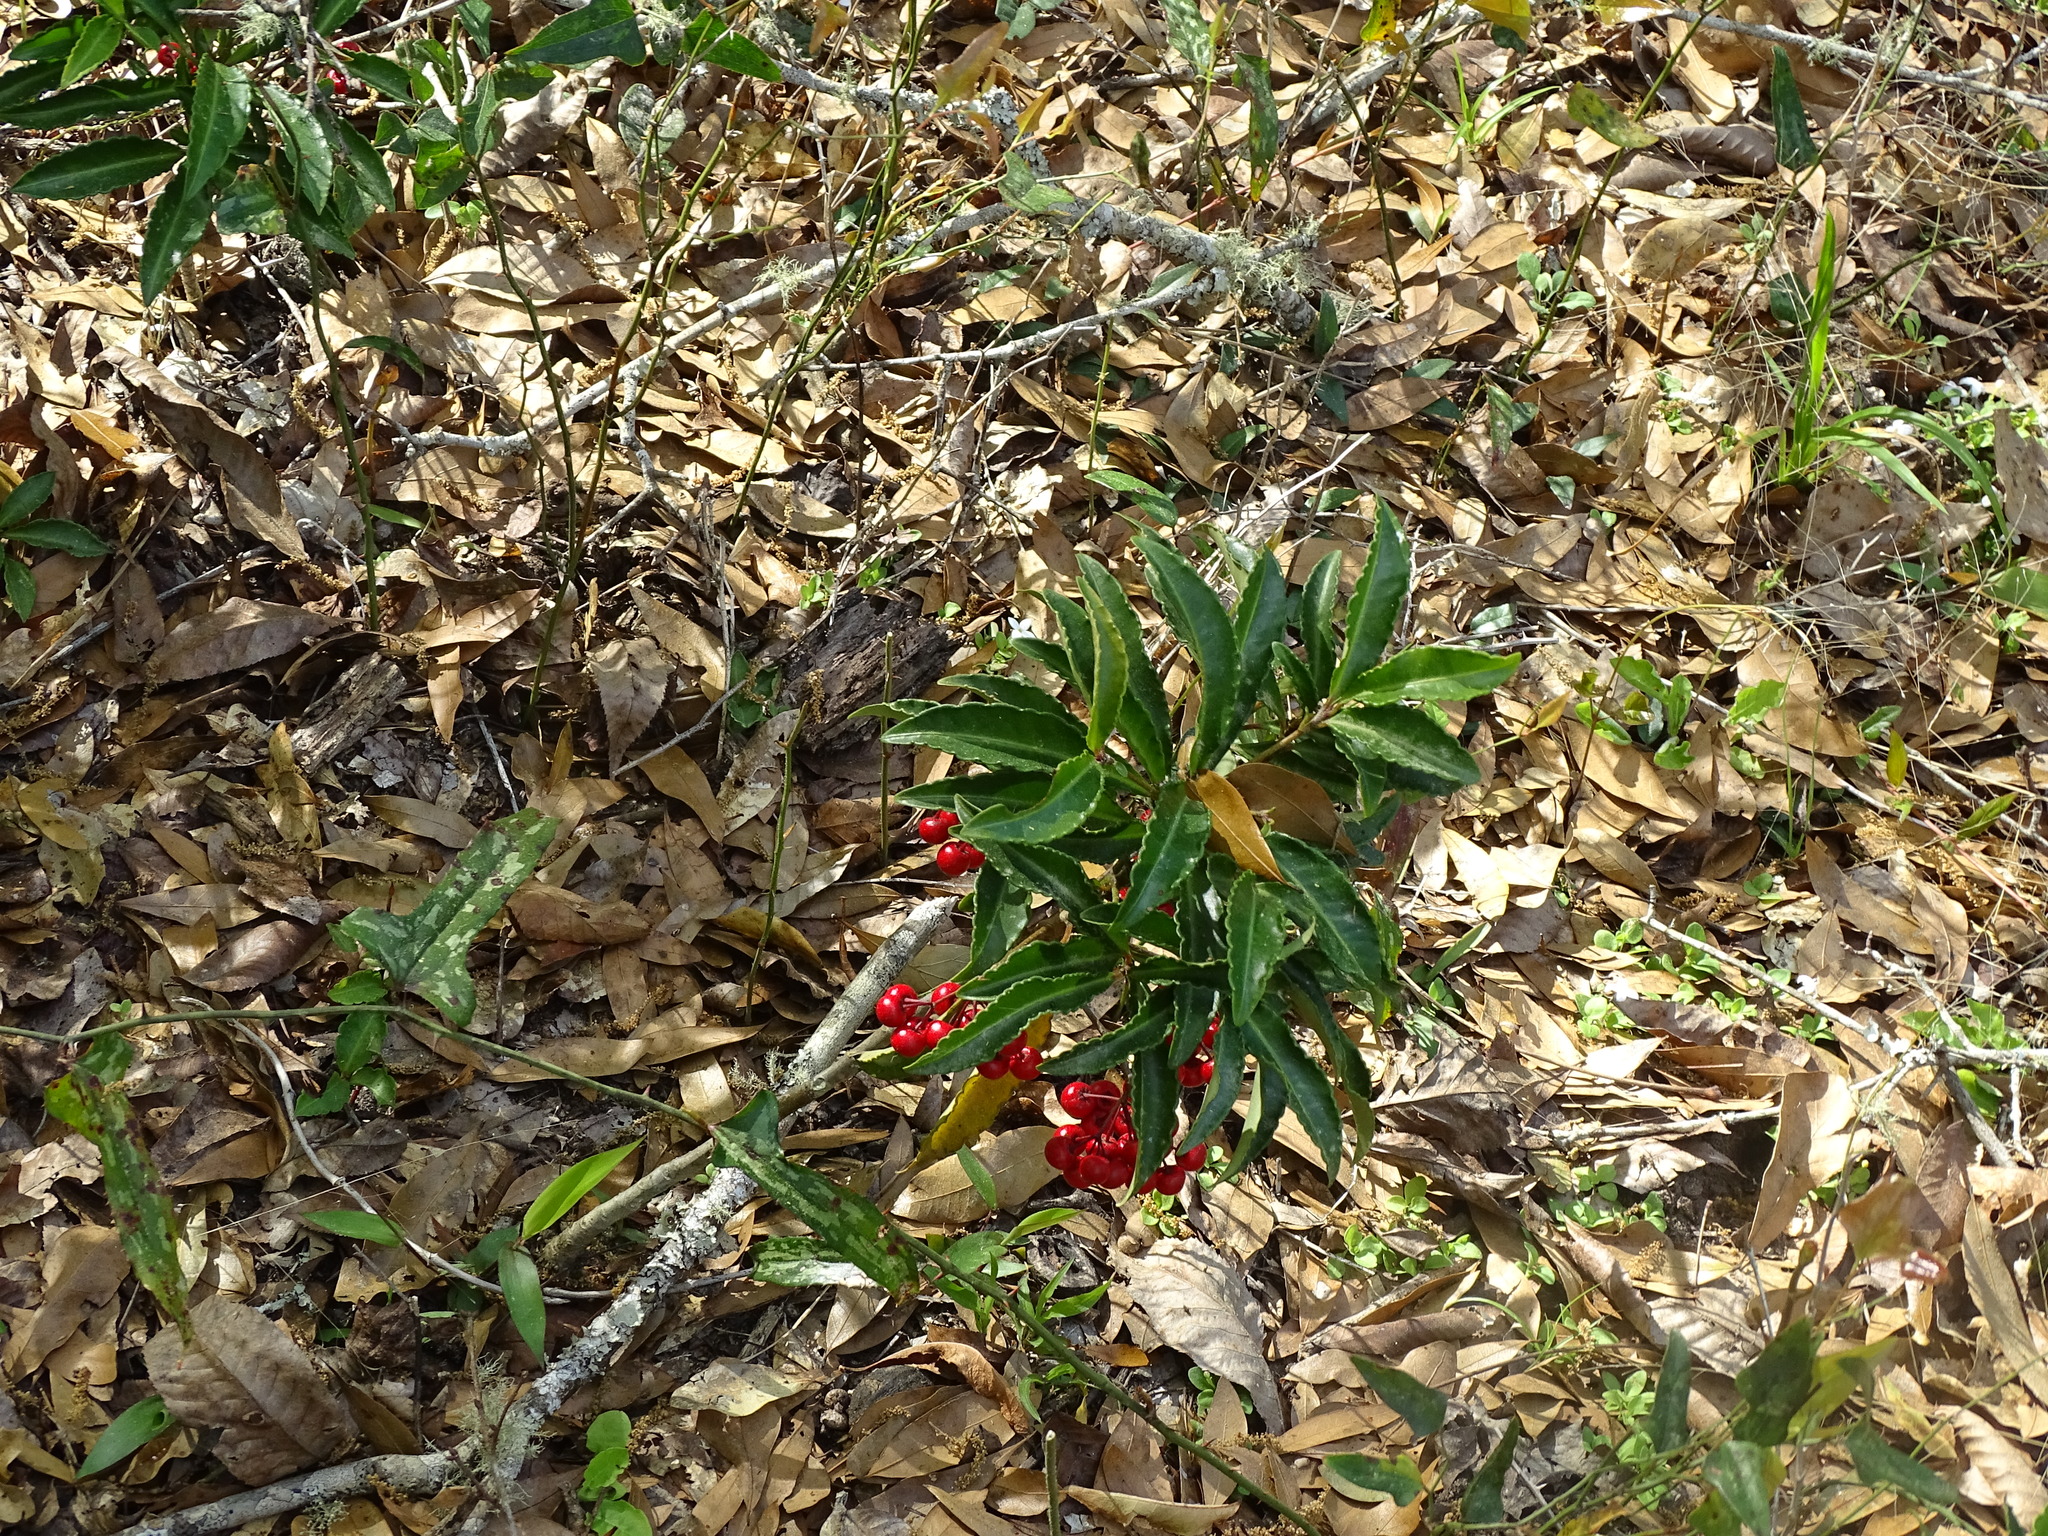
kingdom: Plantae
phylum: Tracheophyta
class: Magnoliopsida
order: Ericales
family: Primulaceae
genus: Ardisia
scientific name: Ardisia crenata
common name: Hen's eyes
